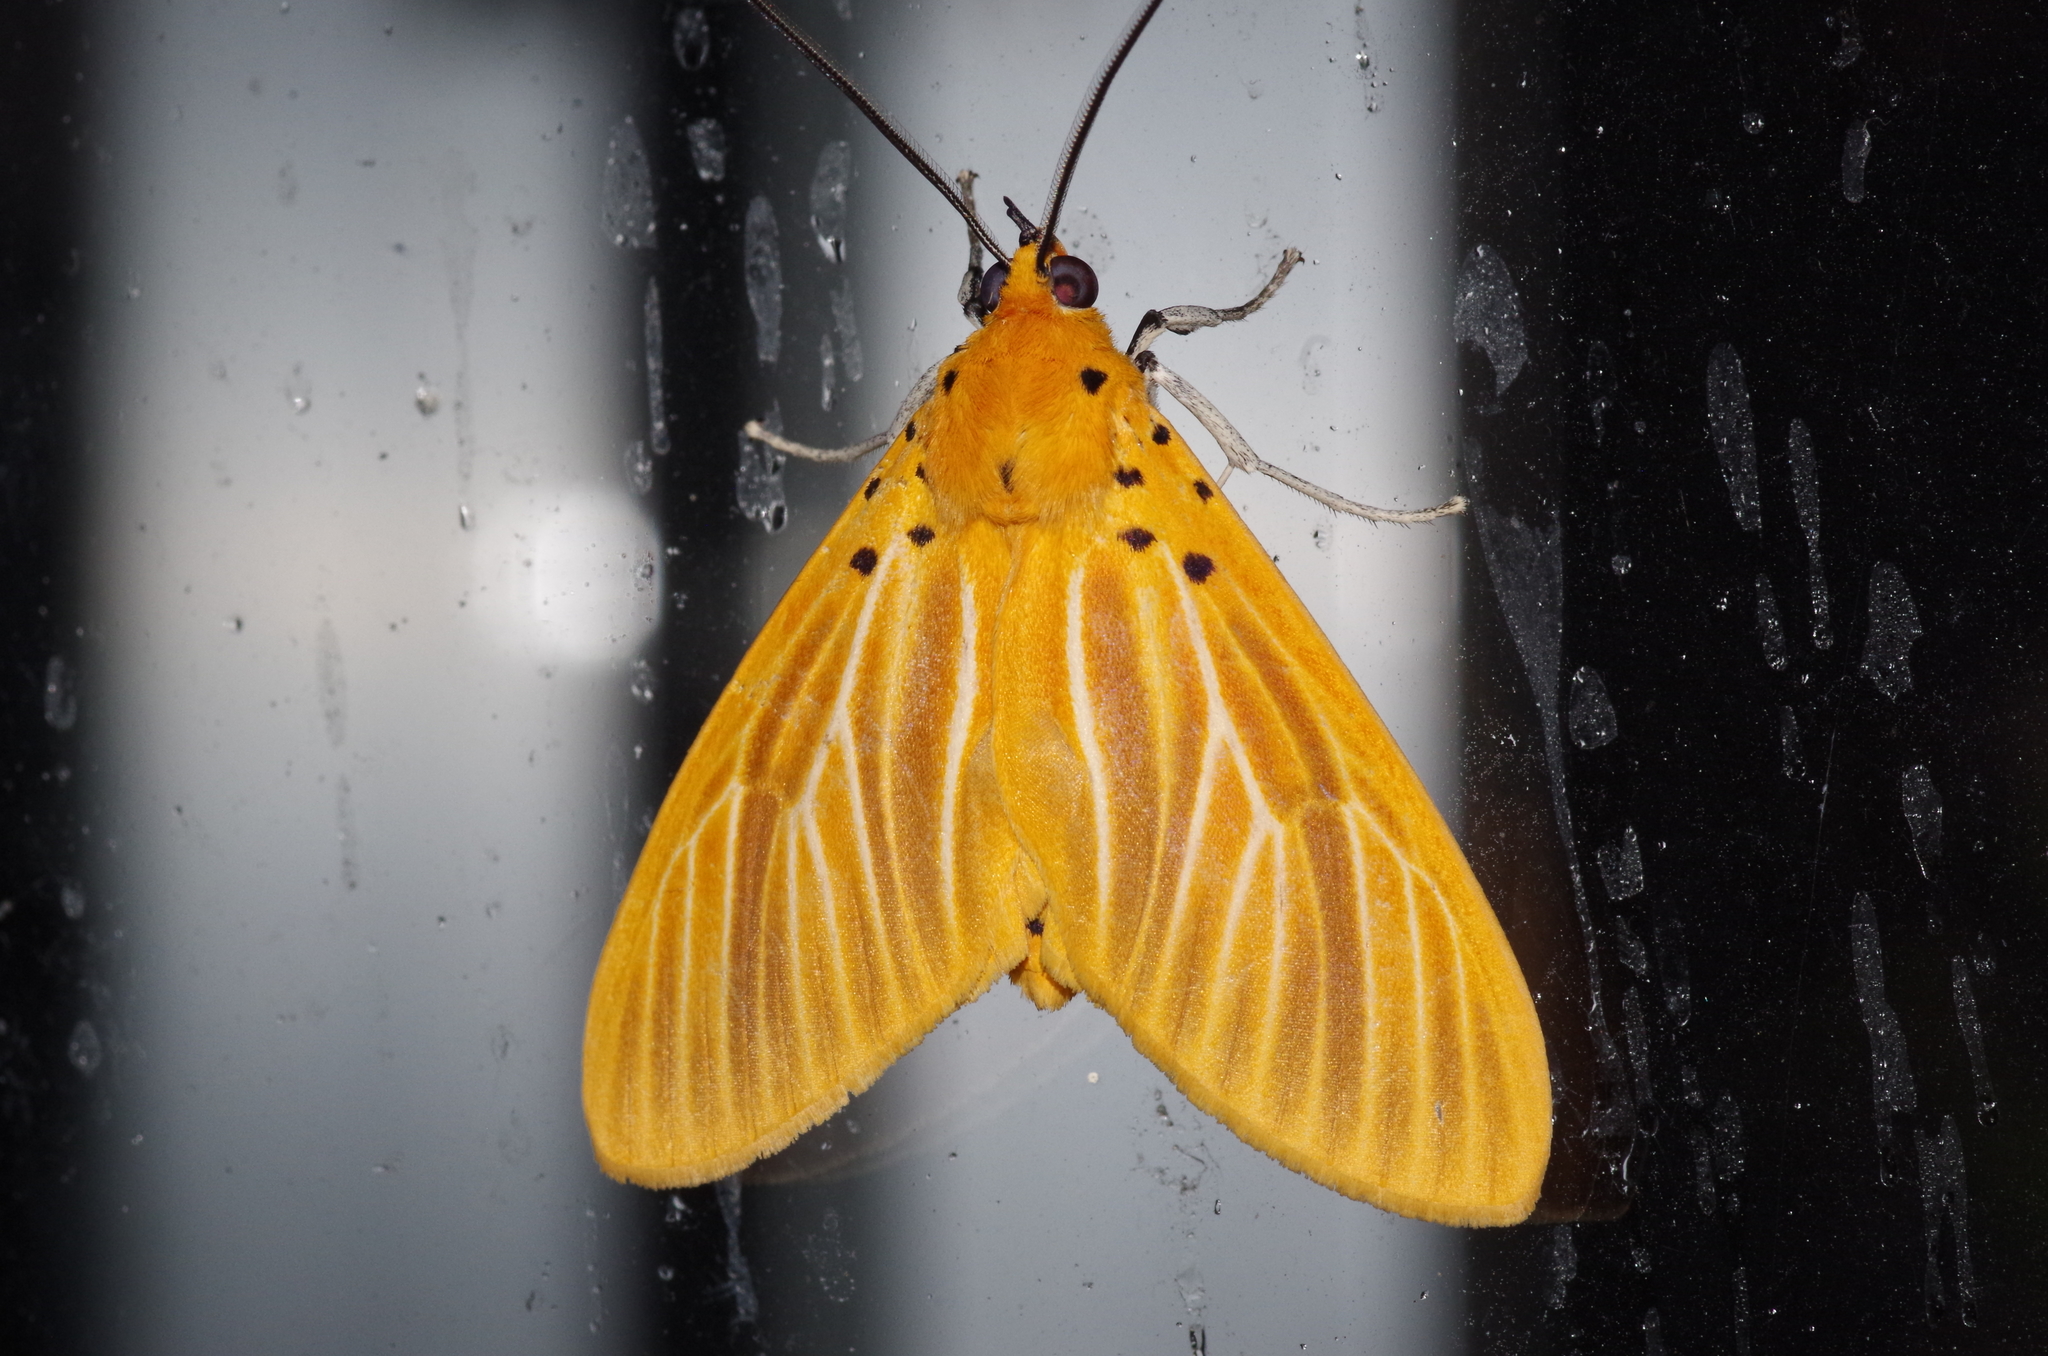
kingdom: Animalia
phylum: Arthropoda
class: Insecta
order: Lepidoptera
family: Erebidae
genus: Asota
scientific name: Asota egens
